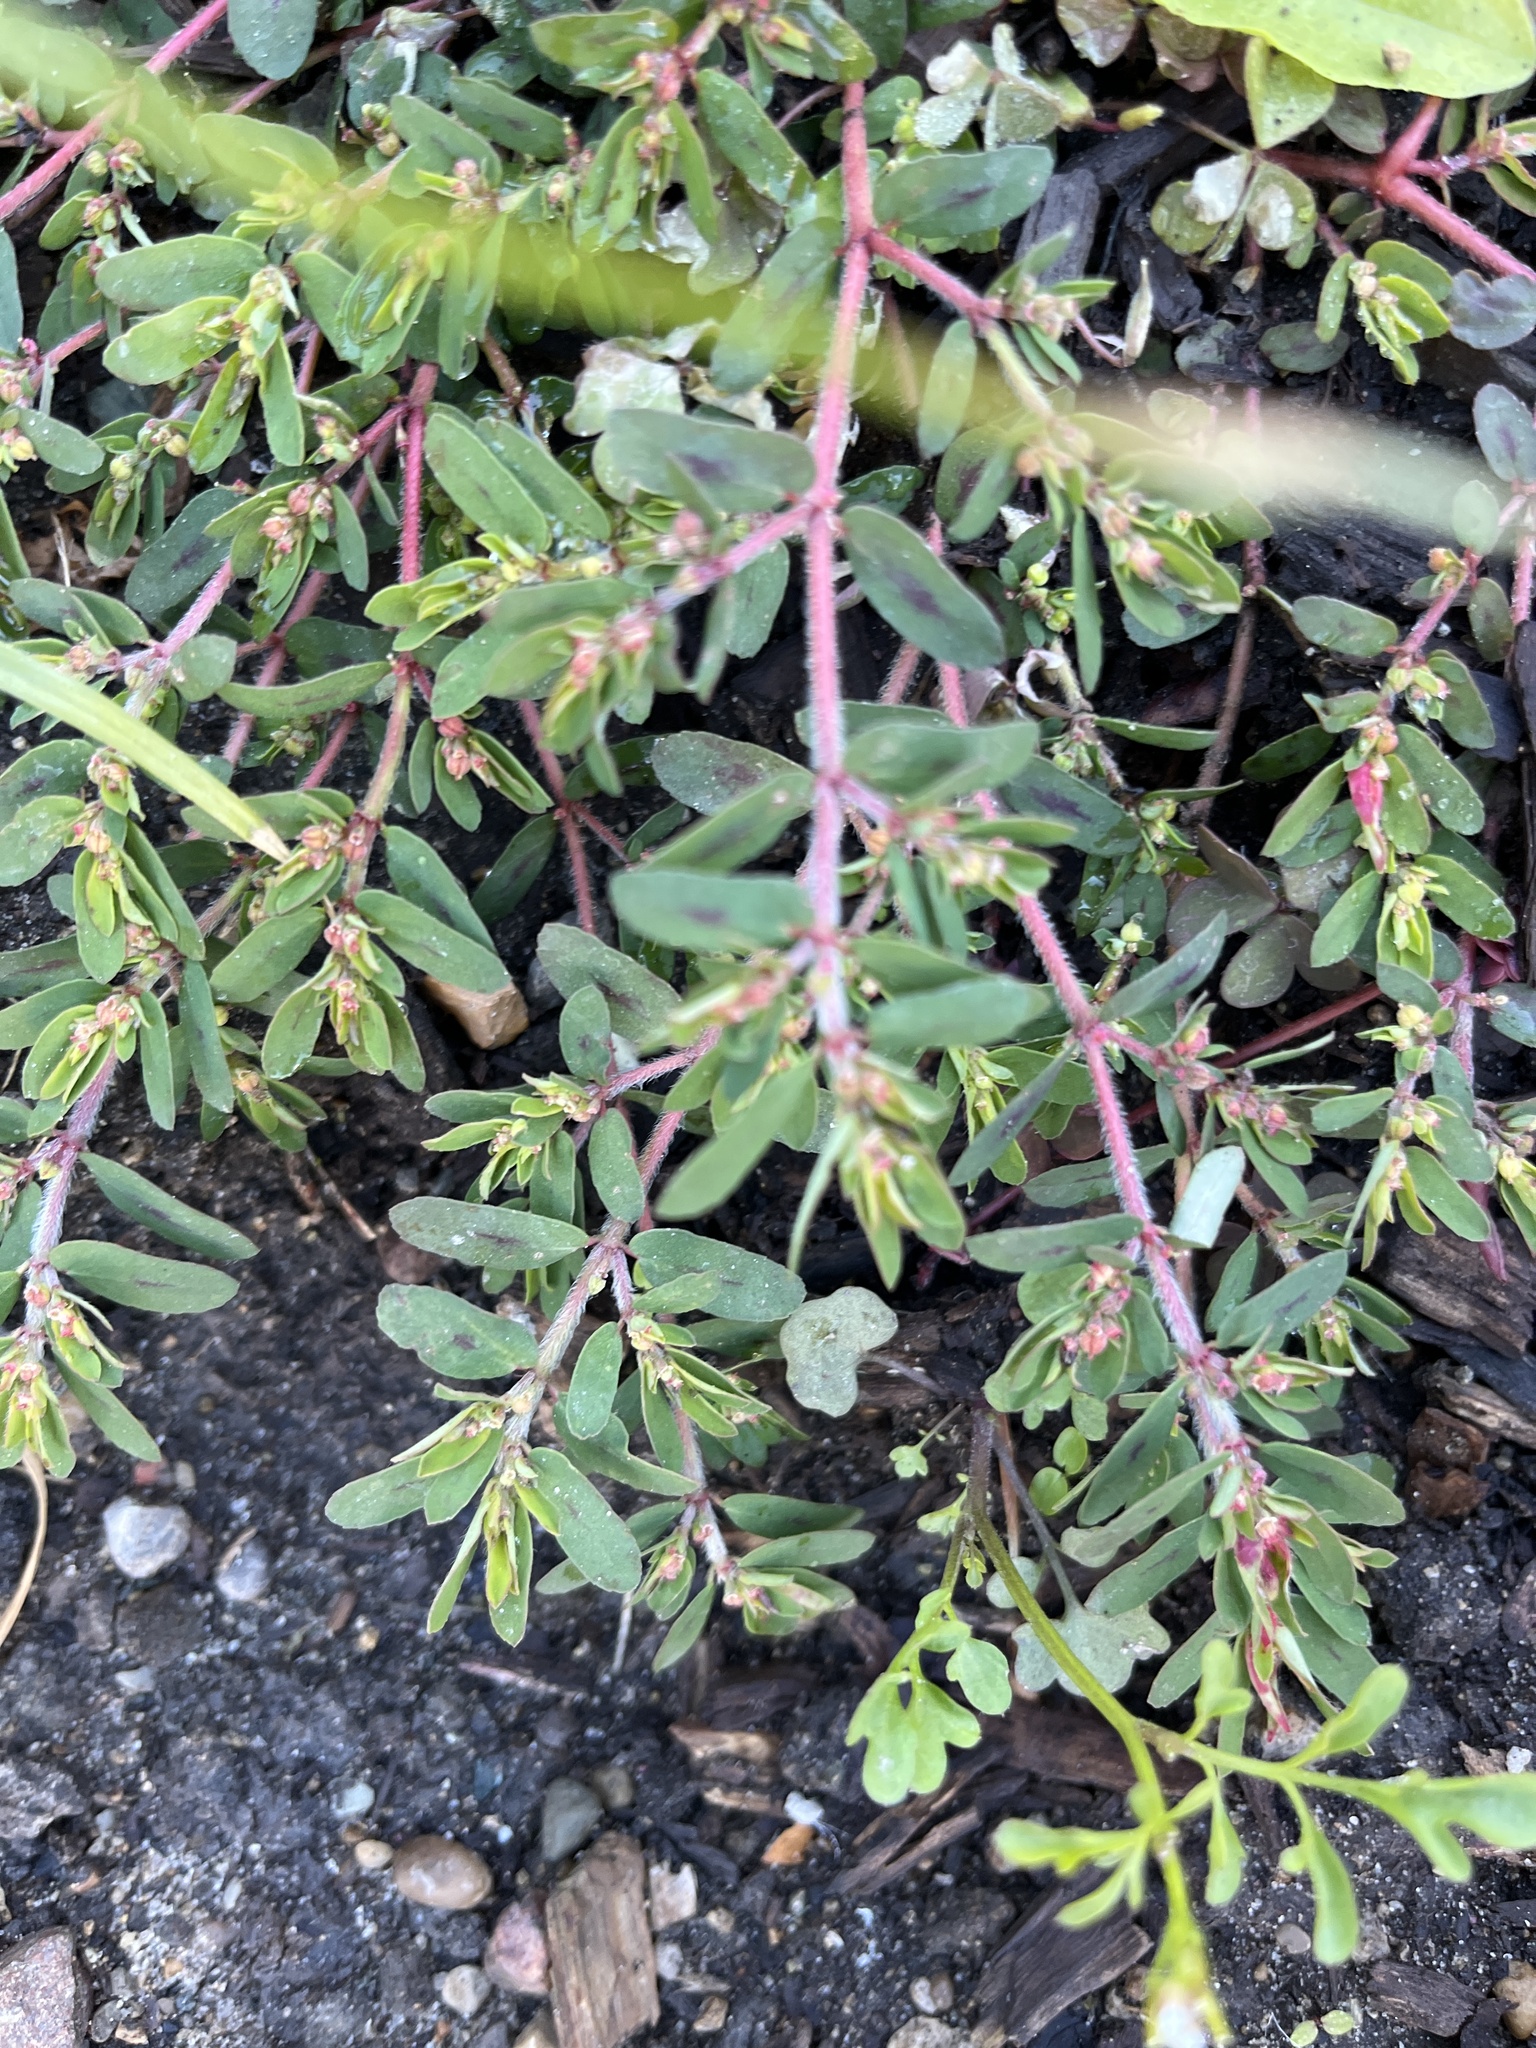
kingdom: Plantae
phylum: Tracheophyta
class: Magnoliopsida
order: Malpighiales
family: Euphorbiaceae
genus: Euphorbia
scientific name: Euphorbia maculata
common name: Spotted spurge
